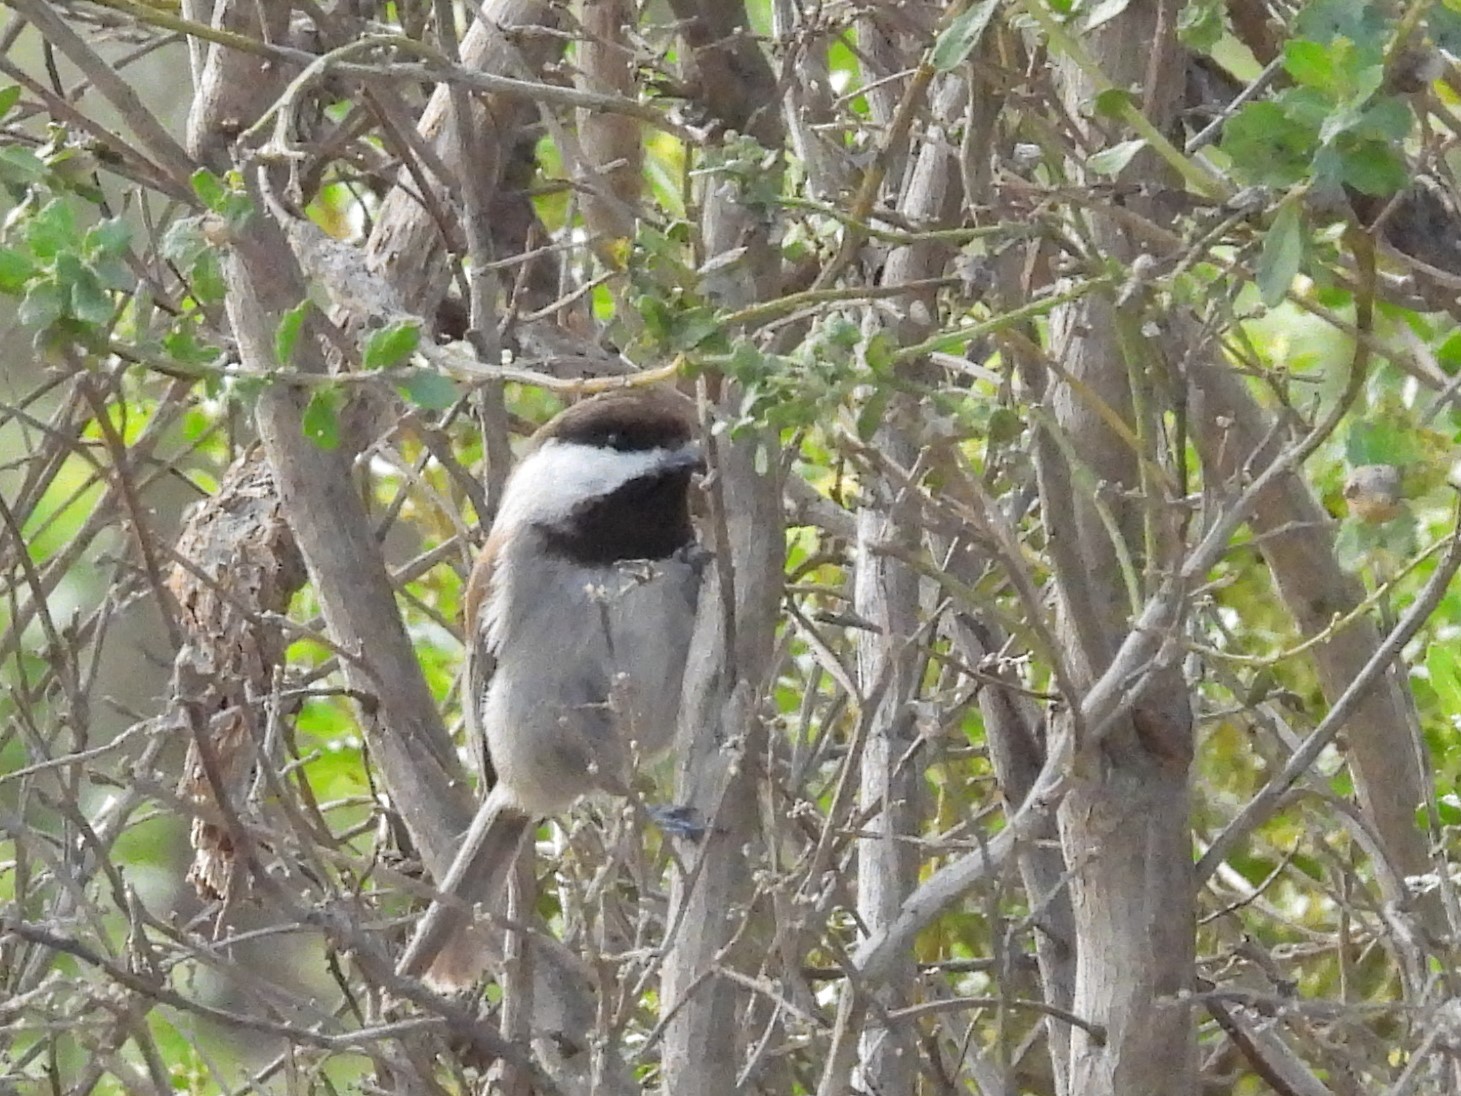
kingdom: Animalia
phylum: Chordata
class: Aves
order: Passeriformes
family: Paridae
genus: Poecile
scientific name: Poecile rufescens
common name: Chestnut-backed chickadee
